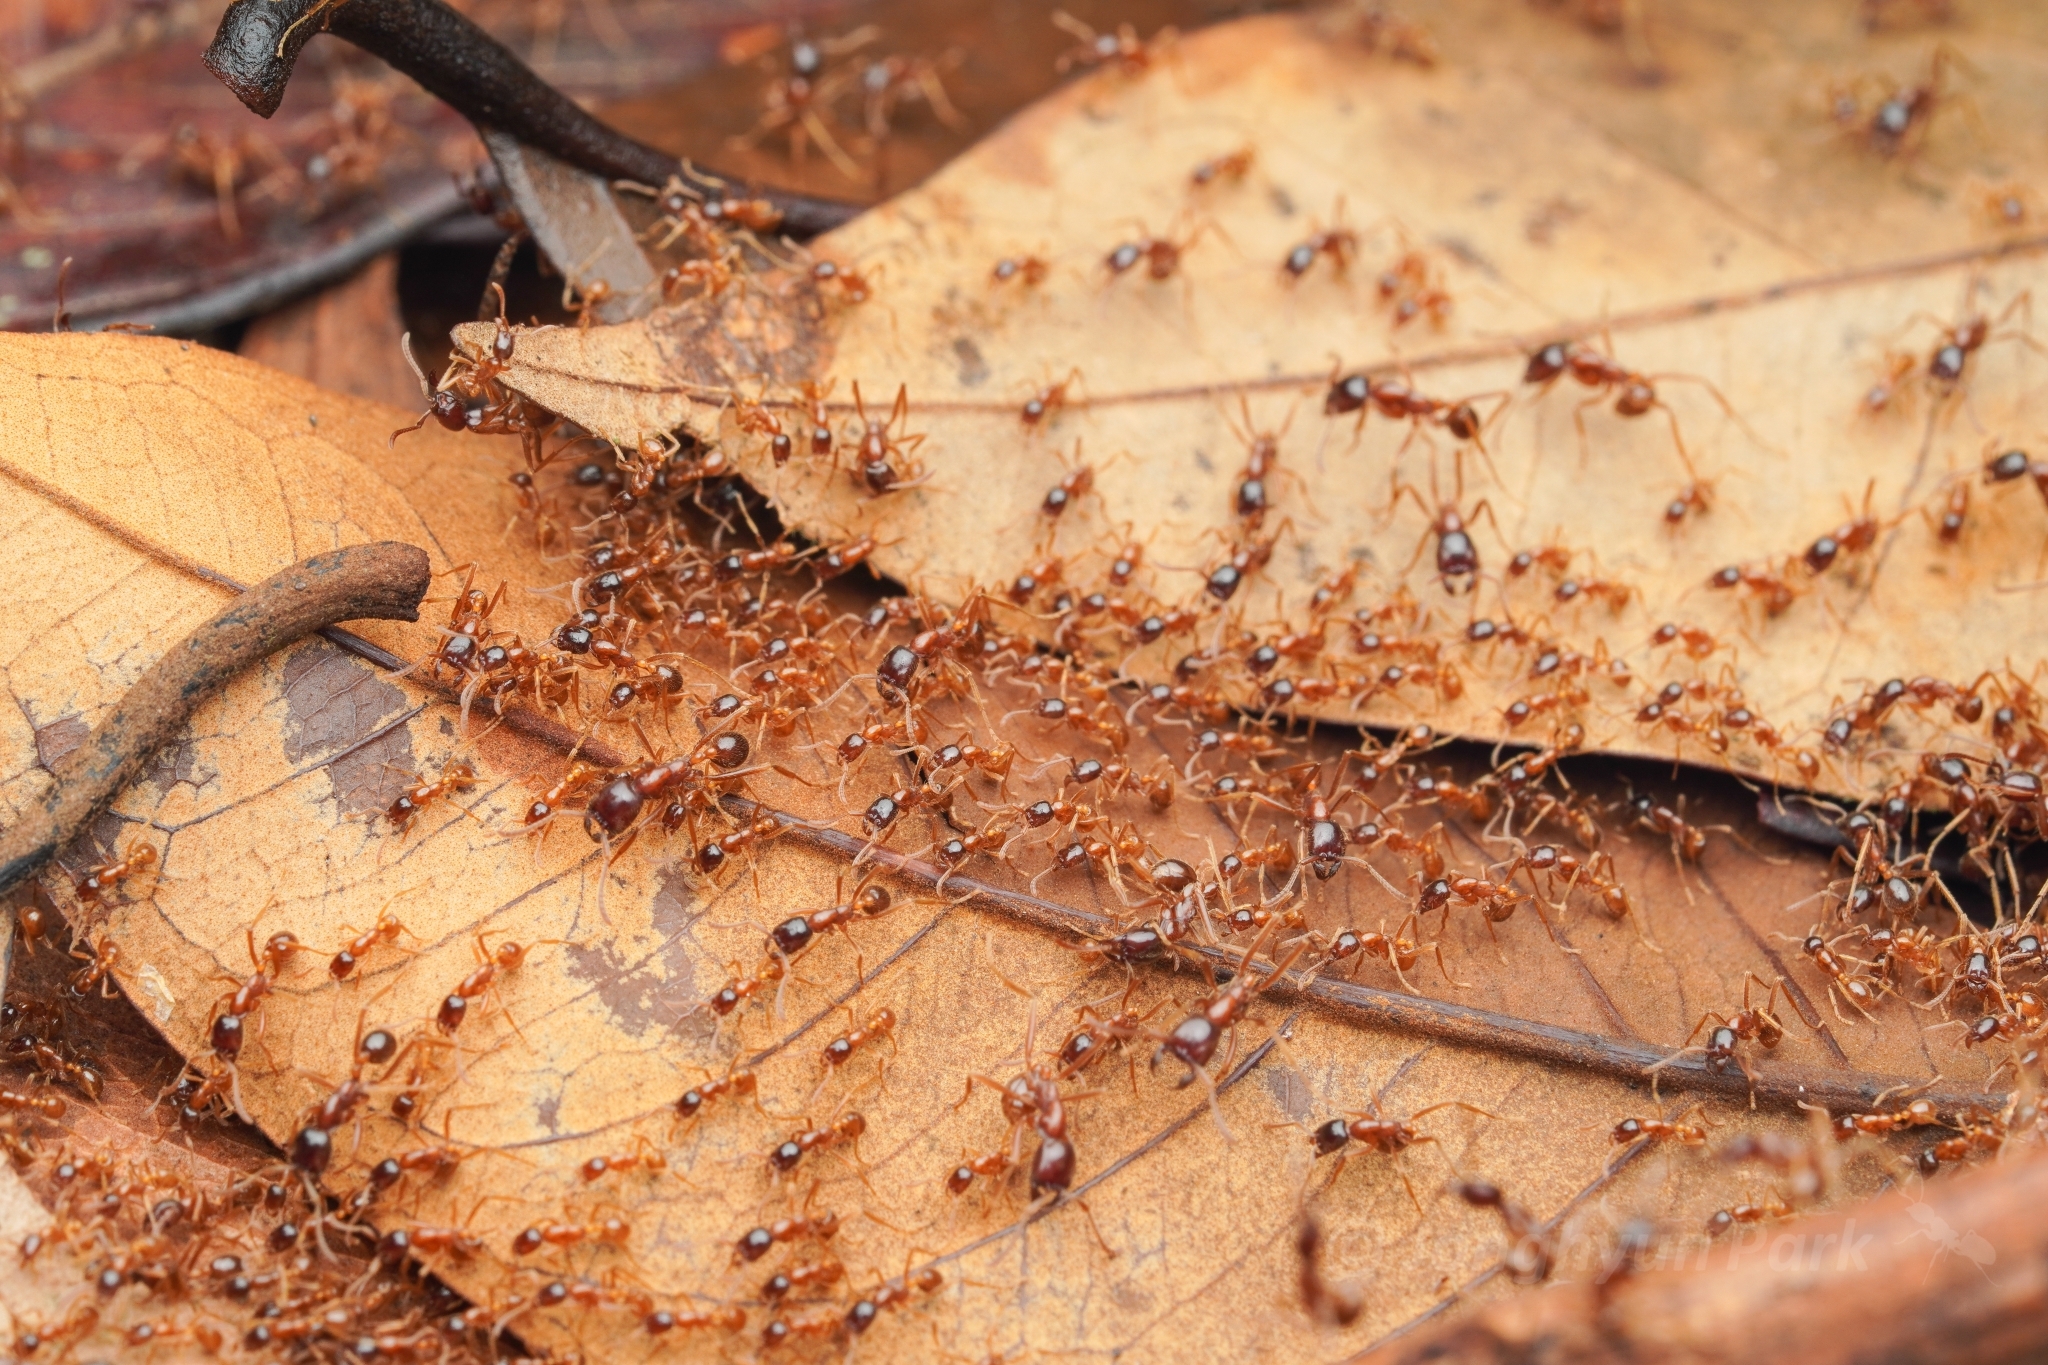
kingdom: Animalia
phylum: Arthropoda
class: Insecta
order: Hymenoptera
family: Formicidae
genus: Labidus
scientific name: Labidus spininodis
